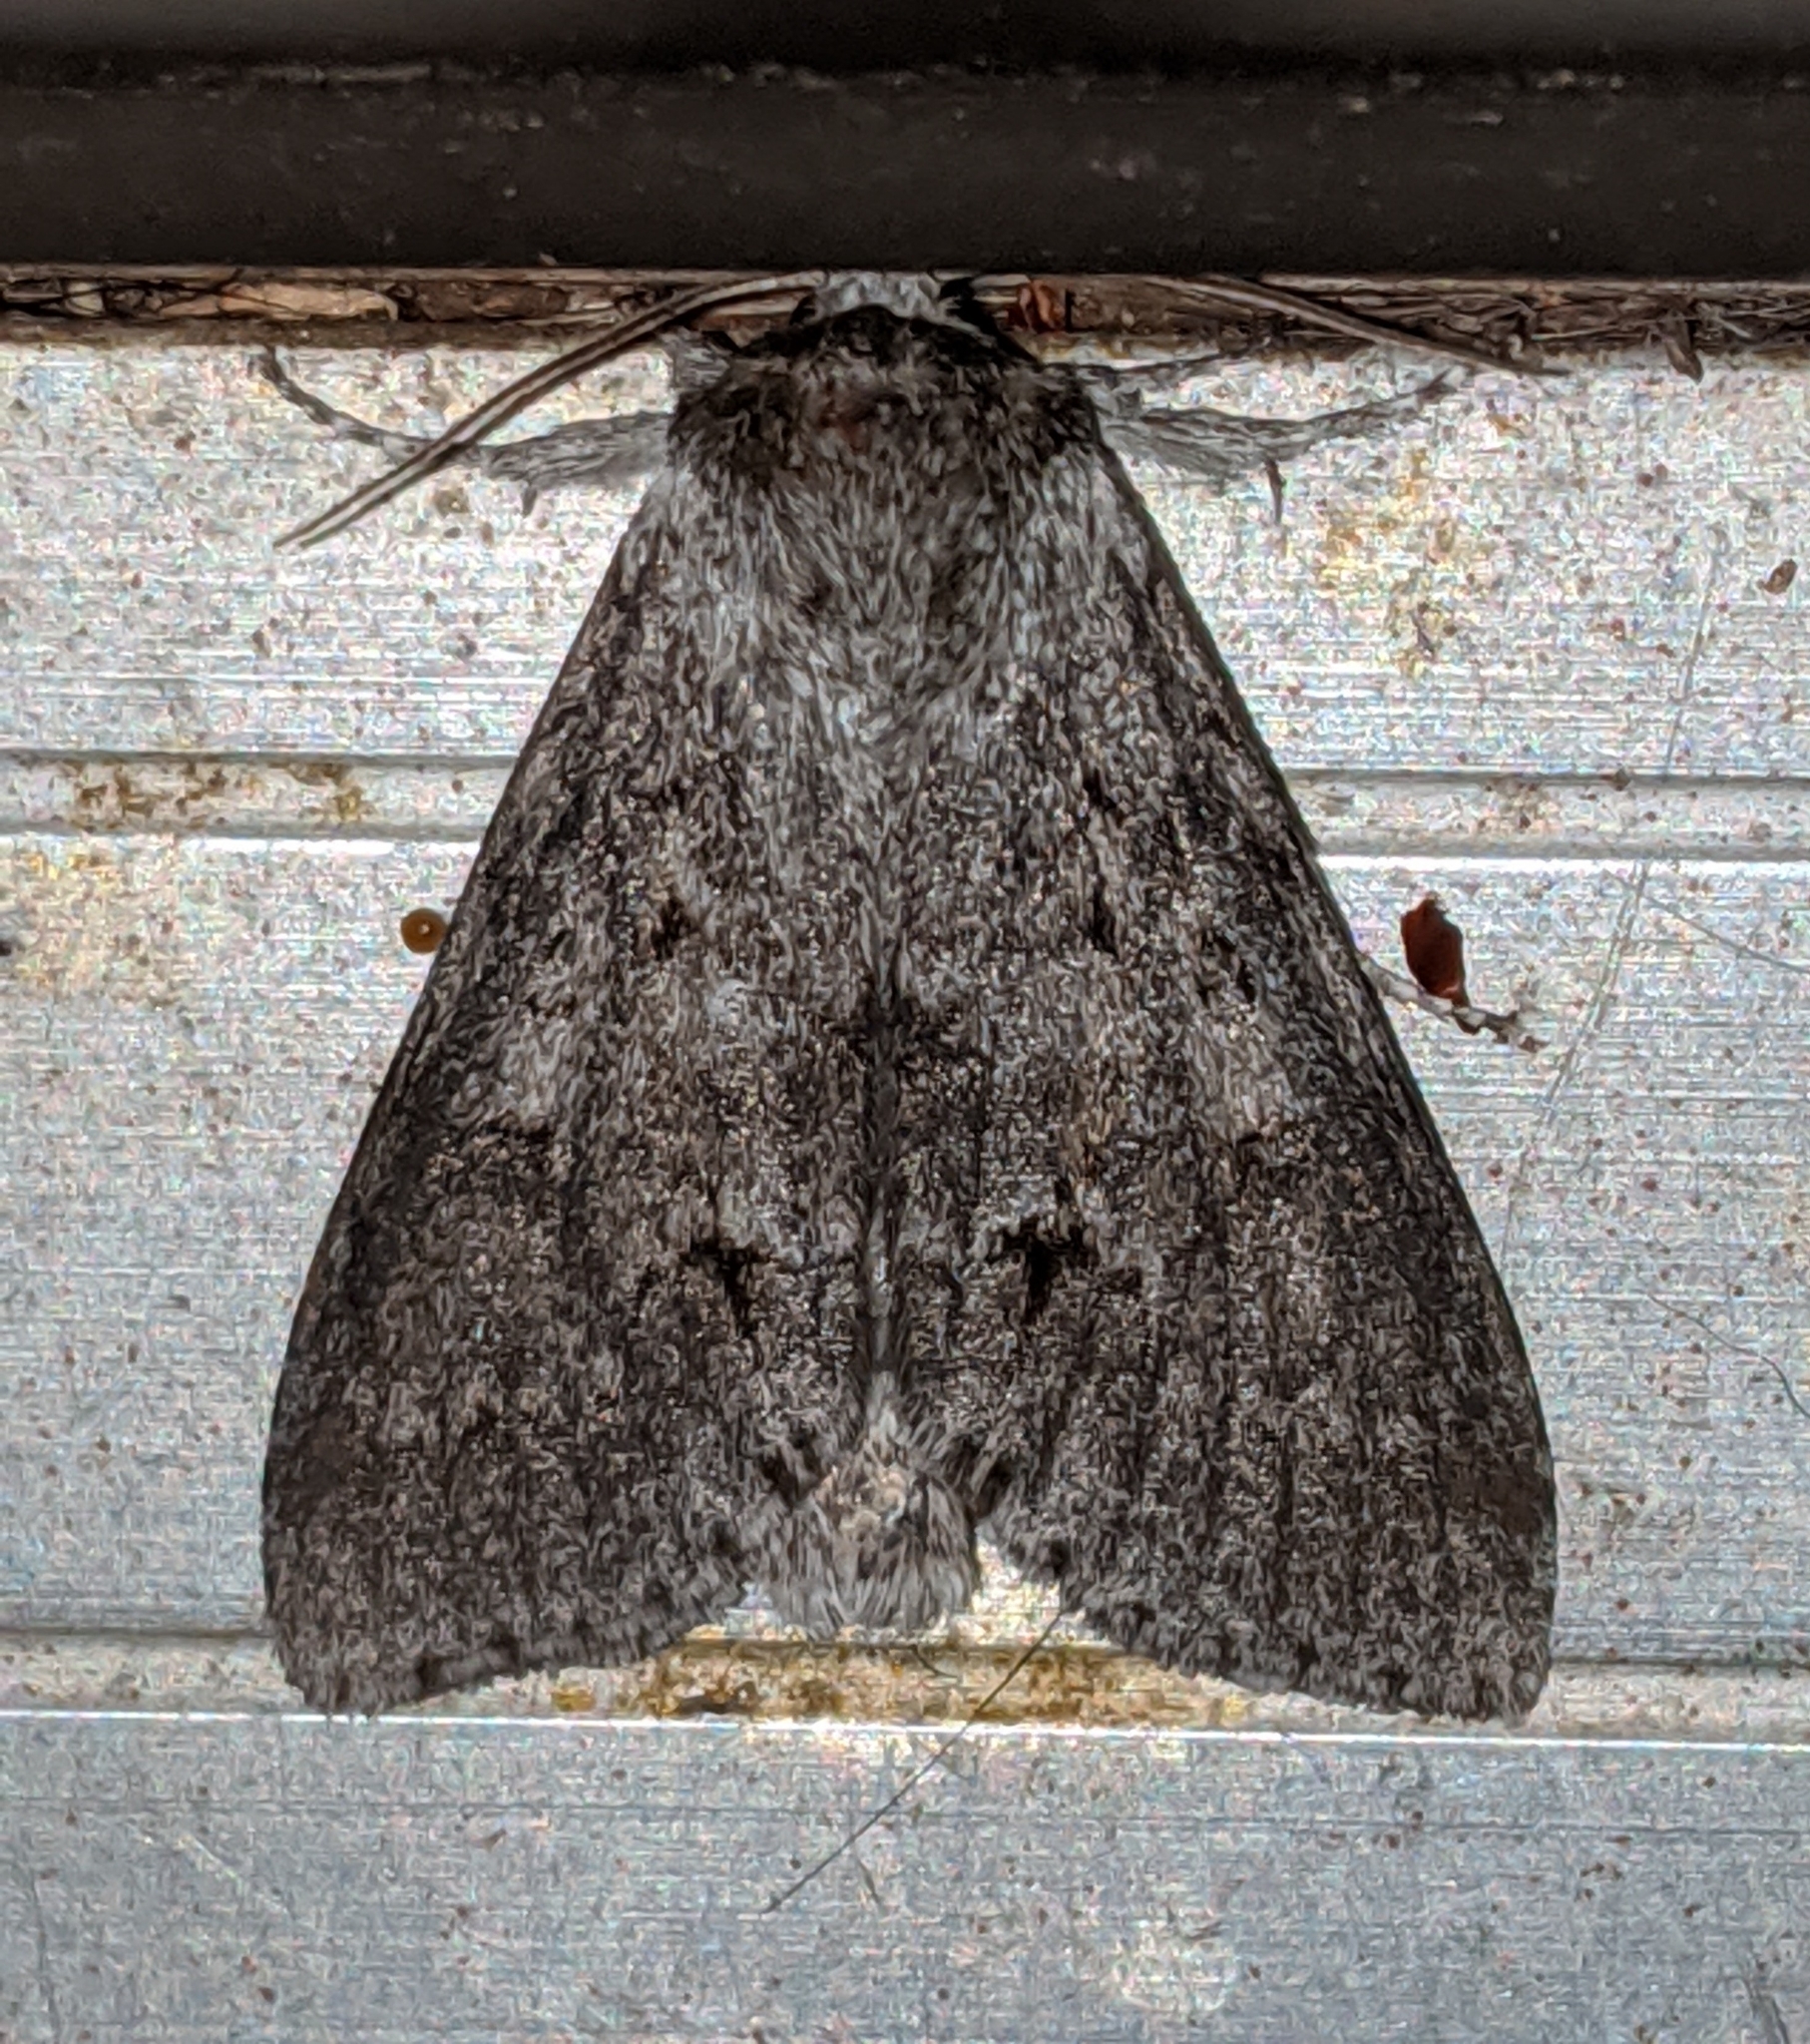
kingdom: Animalia
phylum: Arthropoda
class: Insecta
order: Lepidoptera
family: Noctuidae
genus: Acronicta
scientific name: Acronicta insita
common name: Large gray dagger
